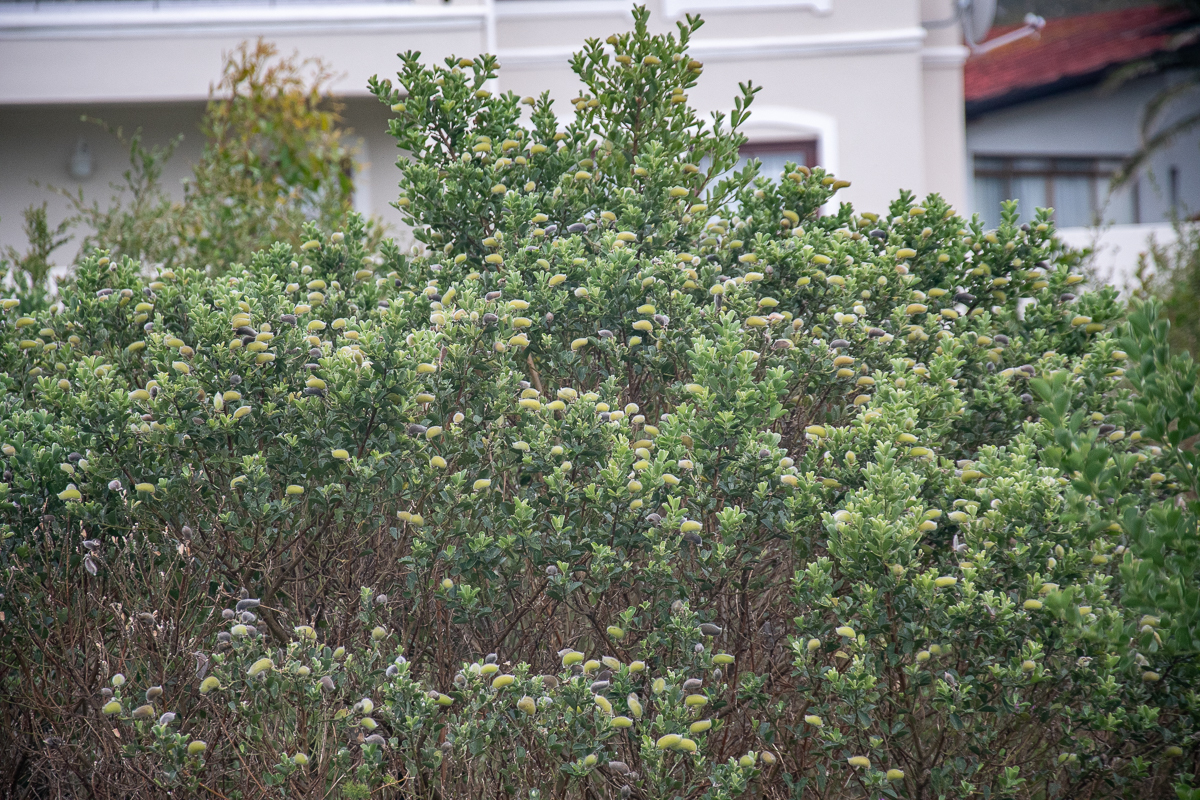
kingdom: Plantae
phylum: Tracheophyta
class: Magnoliopsida
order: Fabales
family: Fabaceae
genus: Podalyria
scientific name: Podalyria calyptrata
